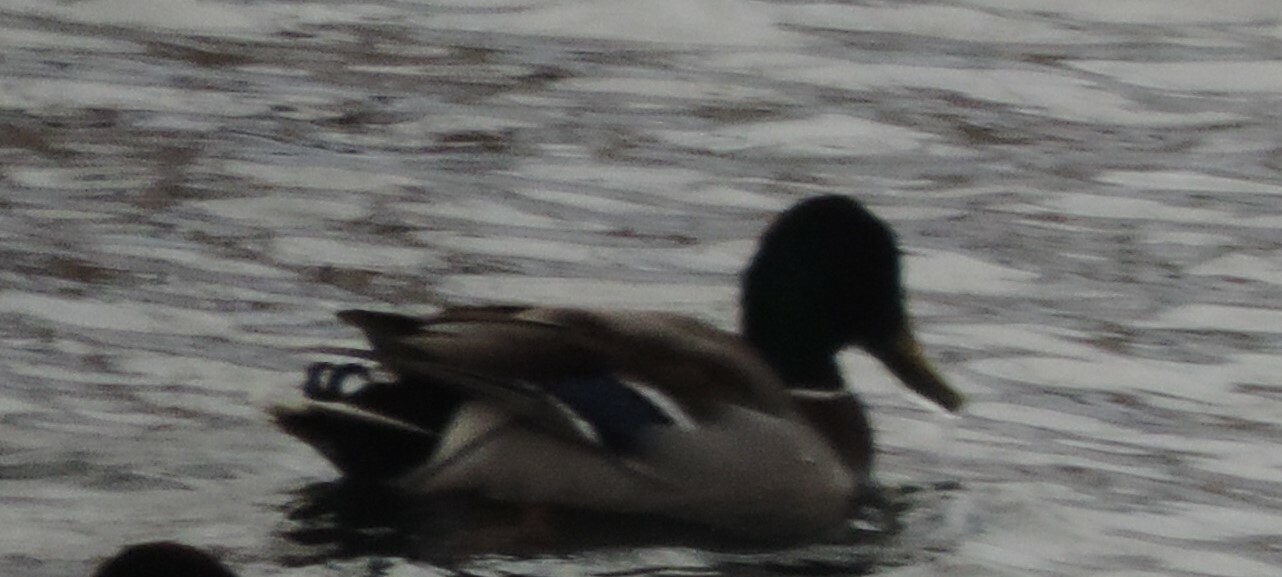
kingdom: Animalia
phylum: Chordata
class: Aves
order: Anseriformes
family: Anatidae
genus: Anas
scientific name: Anas platyrhynchos
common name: Mallard
